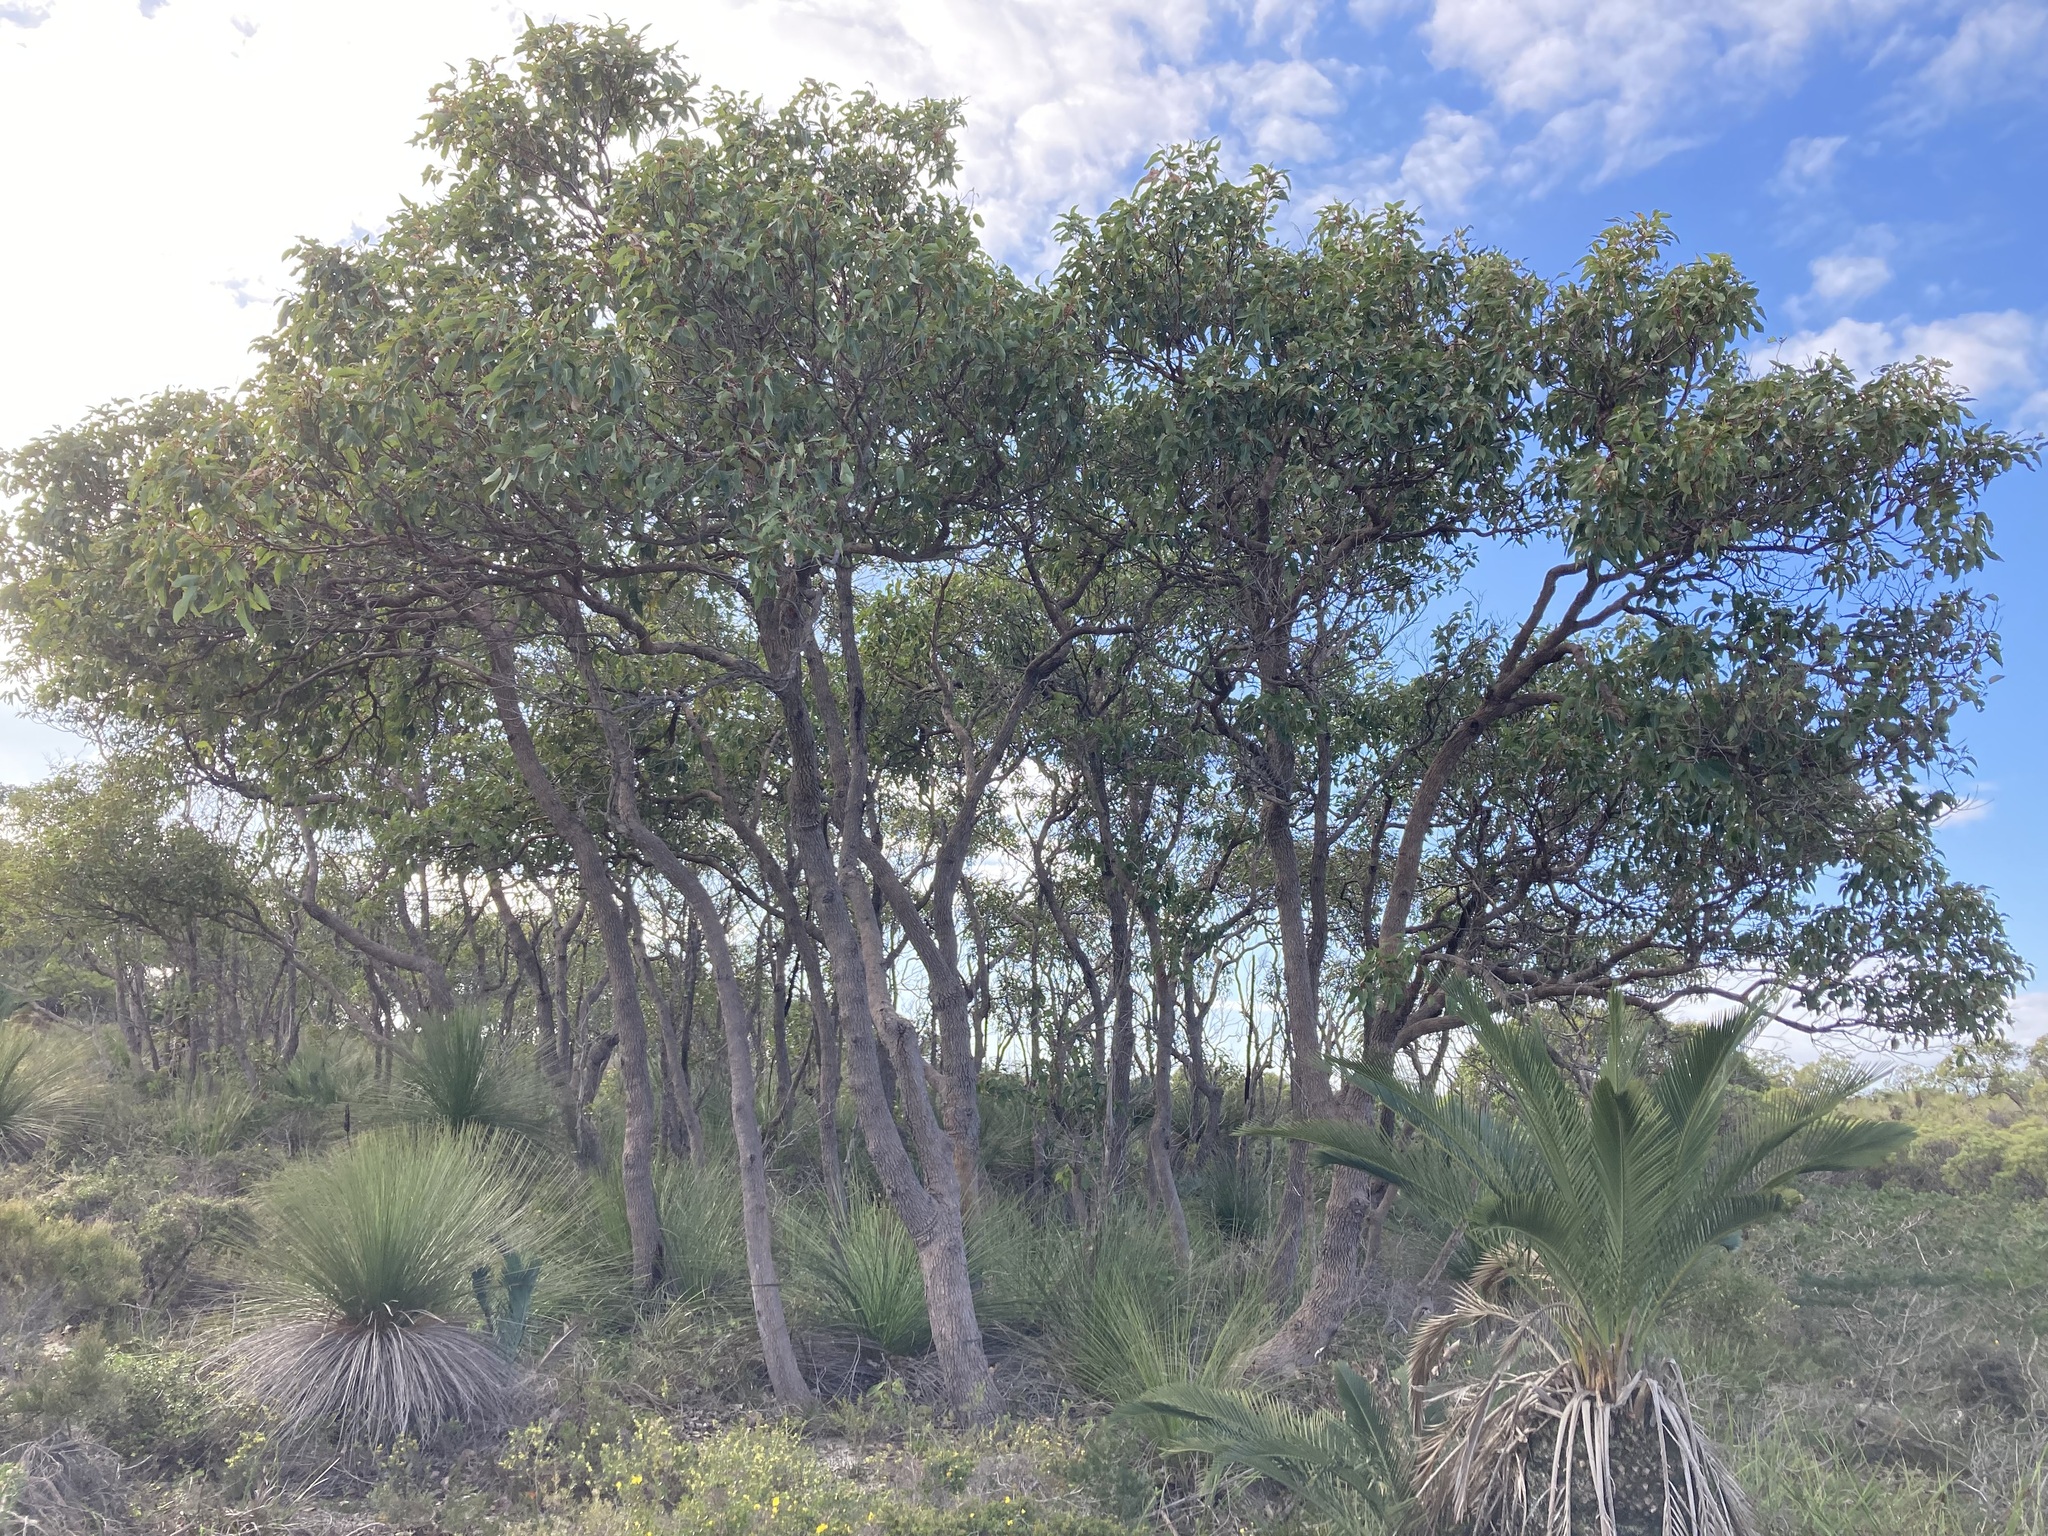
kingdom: Plantae
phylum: Tracheophyta
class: Magnoliopsida
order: Myrtales
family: Myrtaceae
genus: Corymbia
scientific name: Corymbia calophylla
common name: Marri
